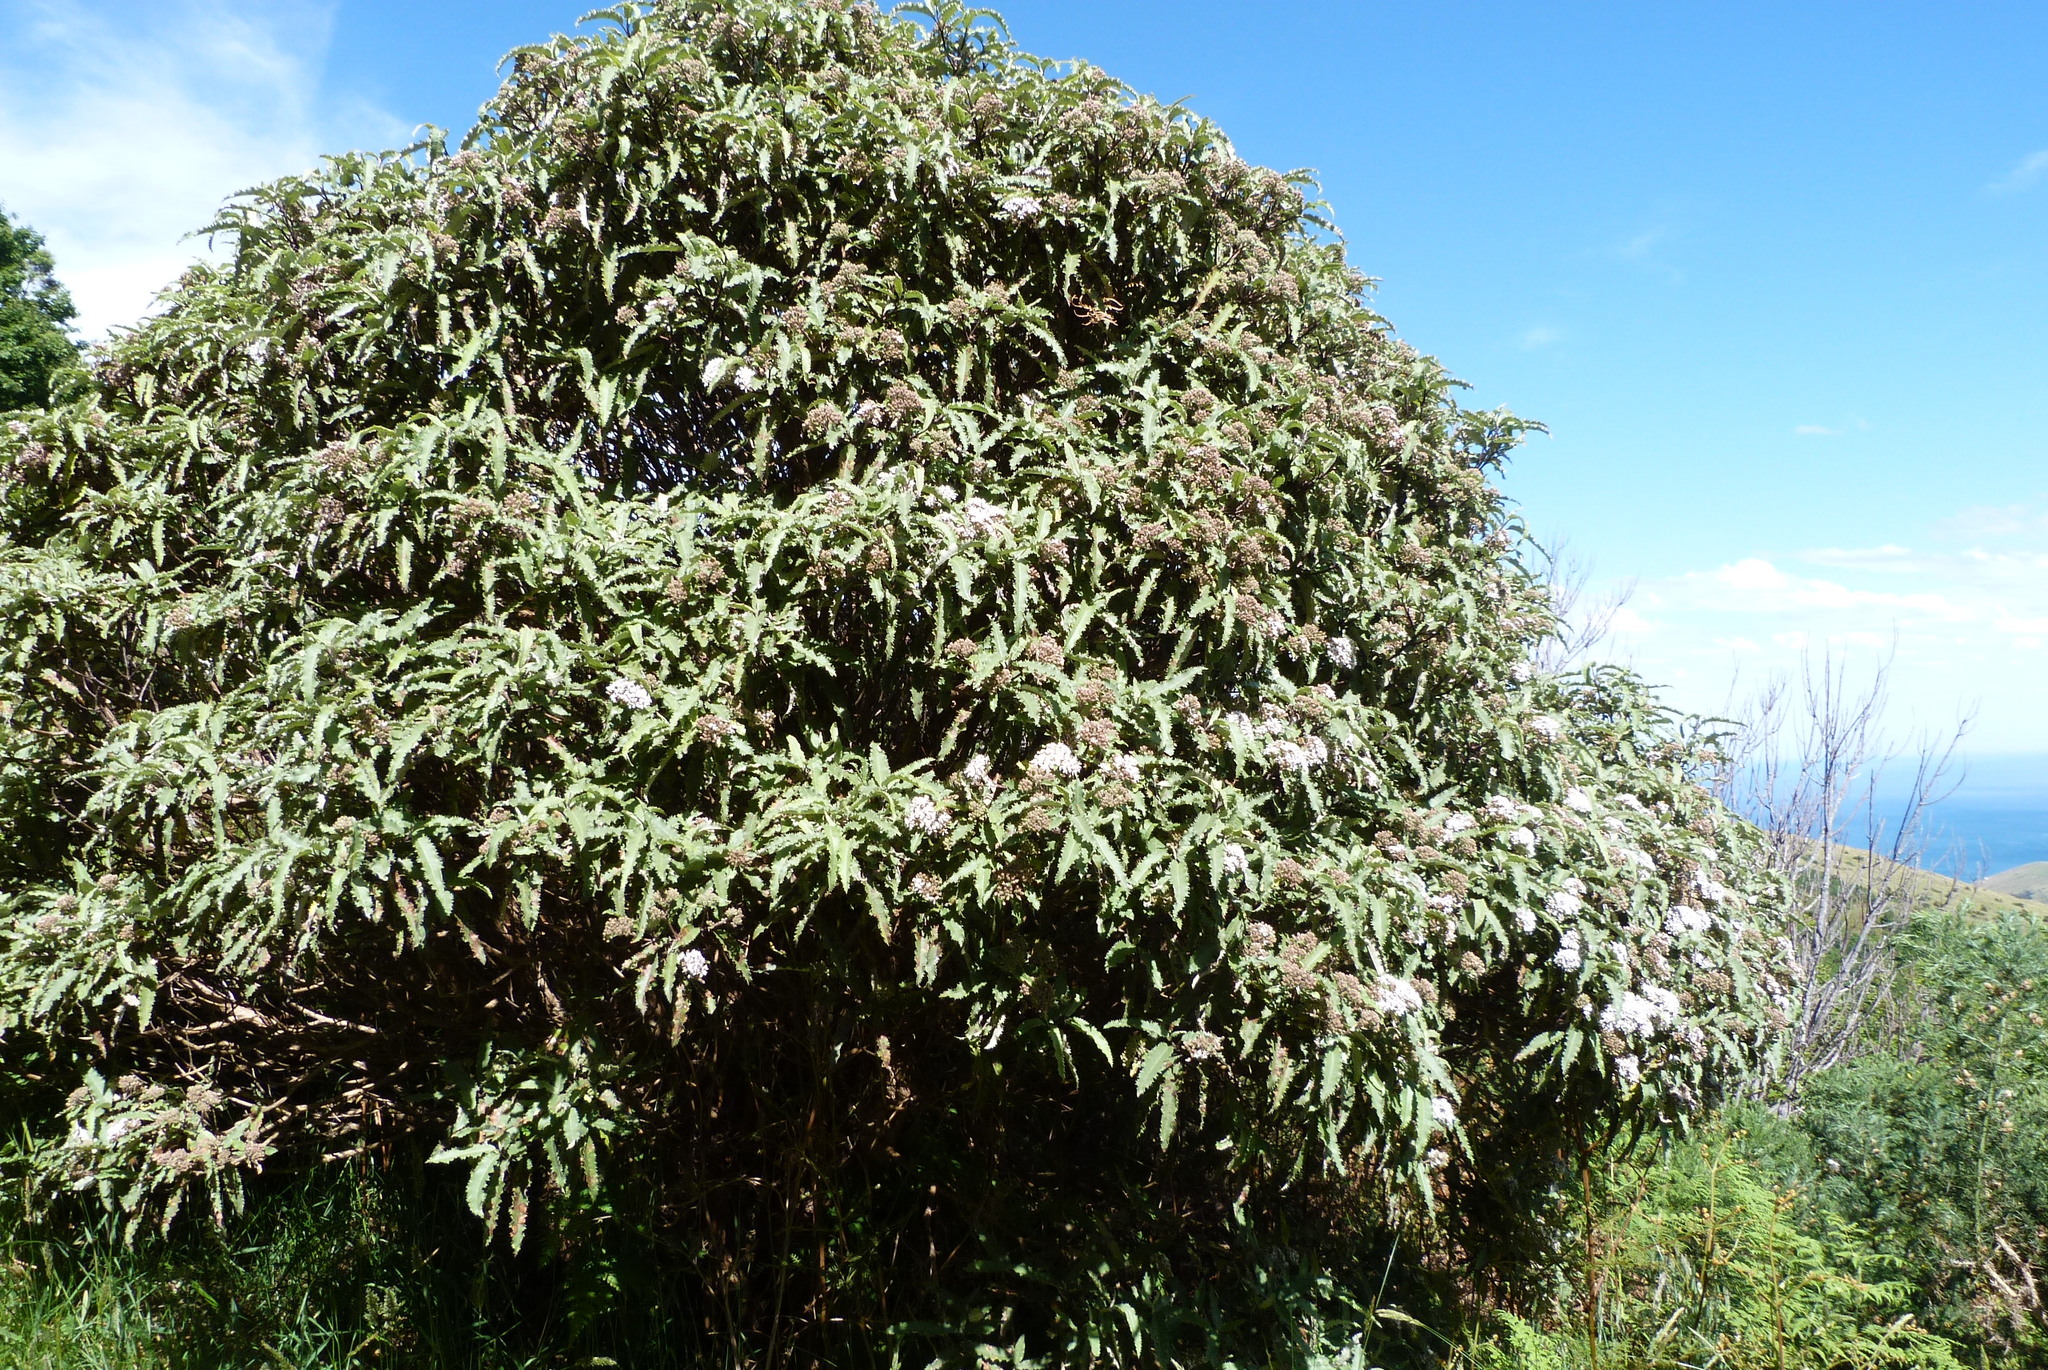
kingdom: Plantae
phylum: Tracheophyta
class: Magnoliopsida
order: Asterales
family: Asteraceae
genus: Olearia
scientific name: Olearia ilicifolia
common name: Maori-holly
